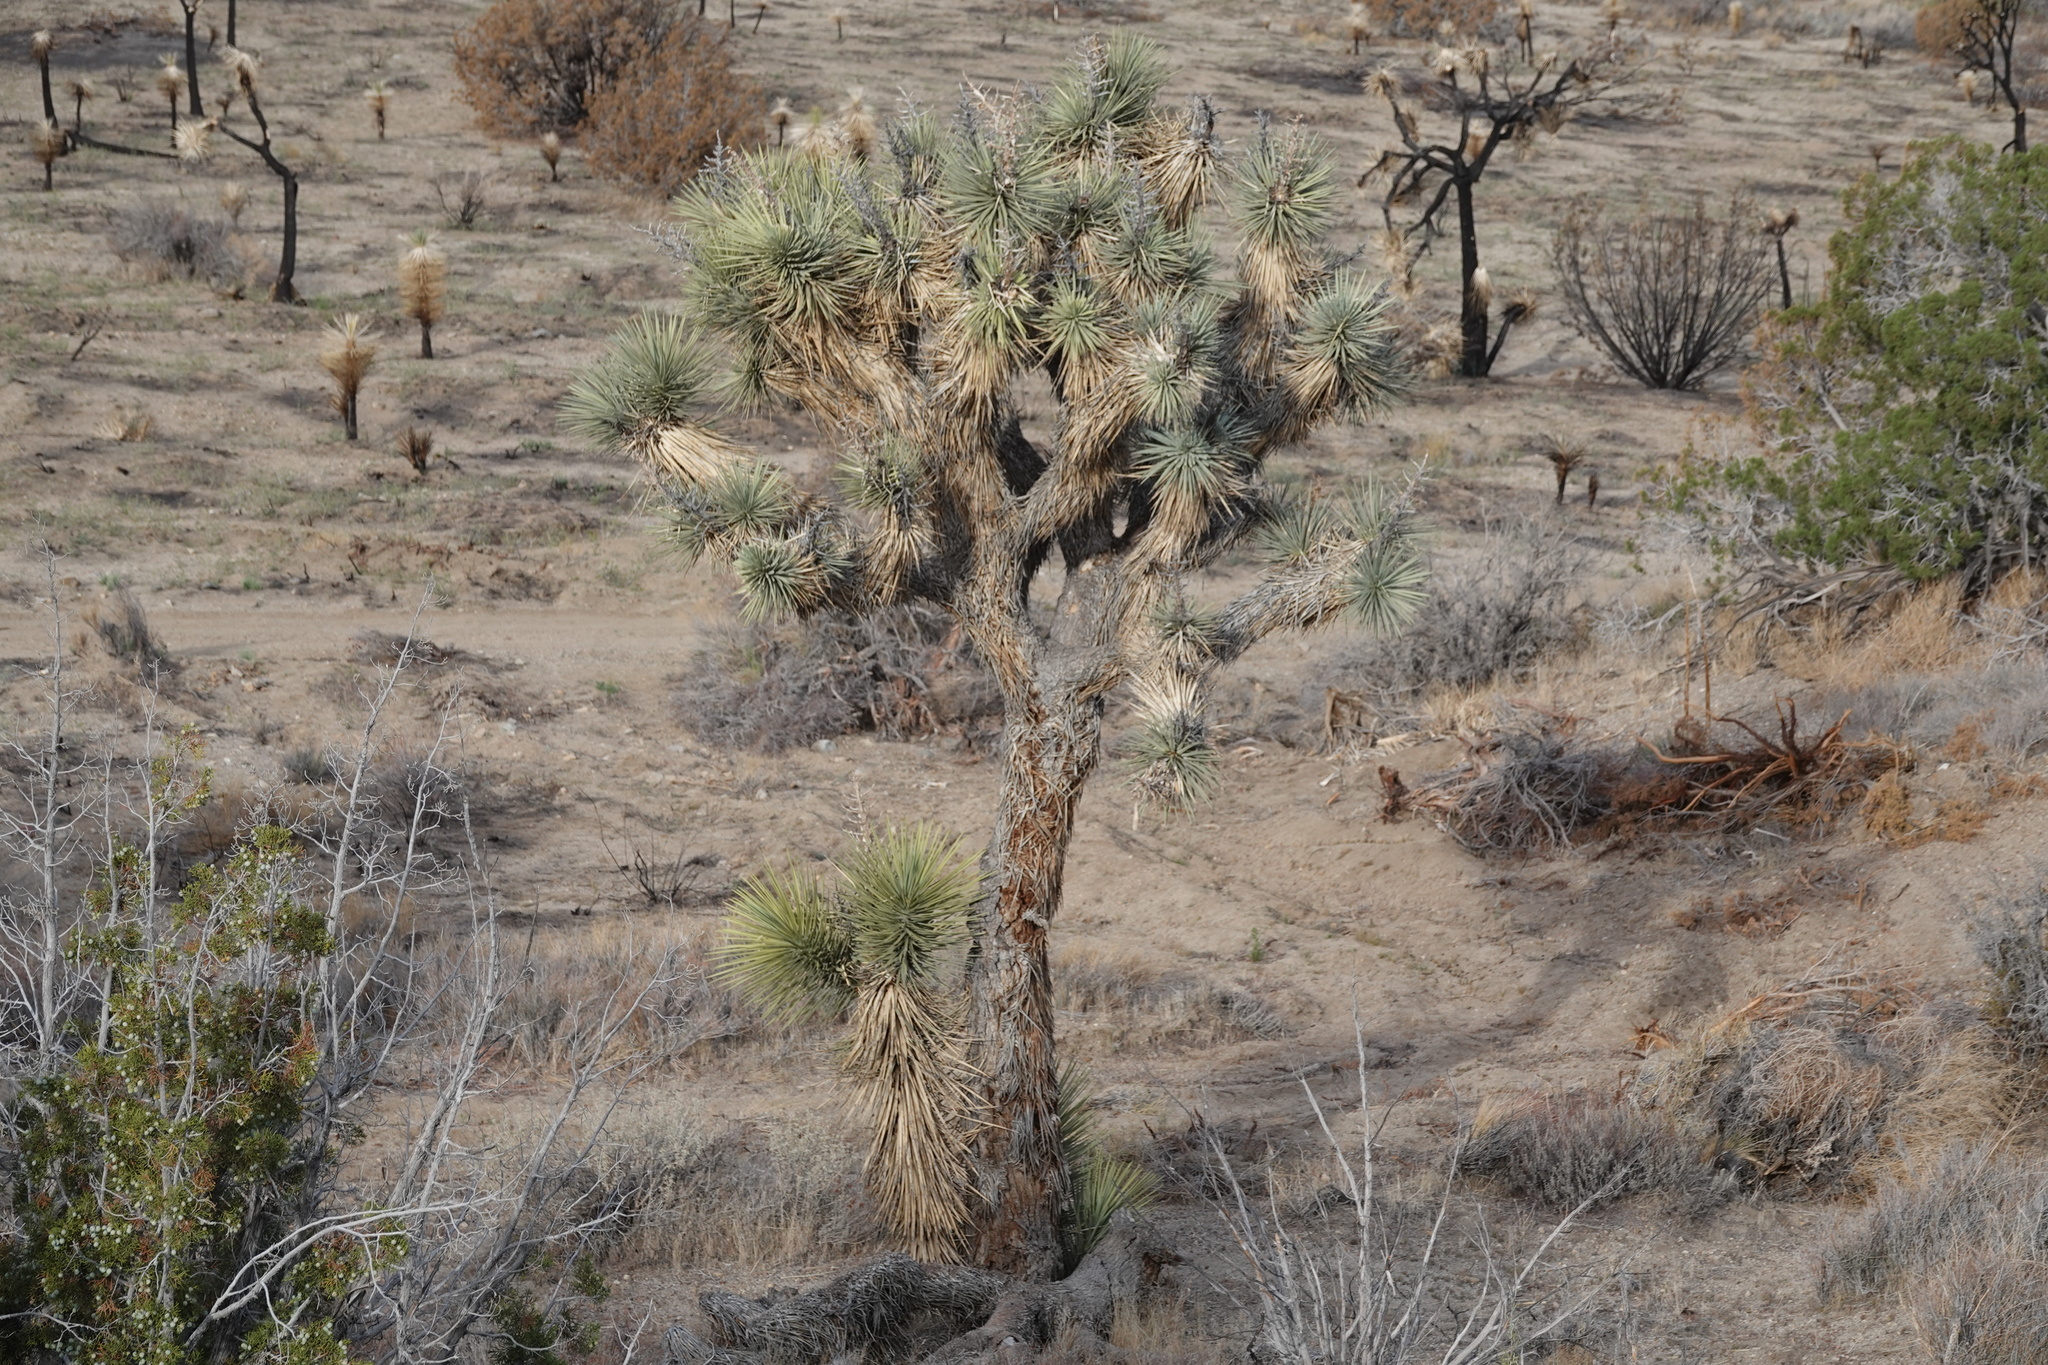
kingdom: Plantae
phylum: Tracheophyta
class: Liliopsida
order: Asparagales
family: Asparagaceae
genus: Yucca
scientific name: Yucca brevifolia
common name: Joshua tree
